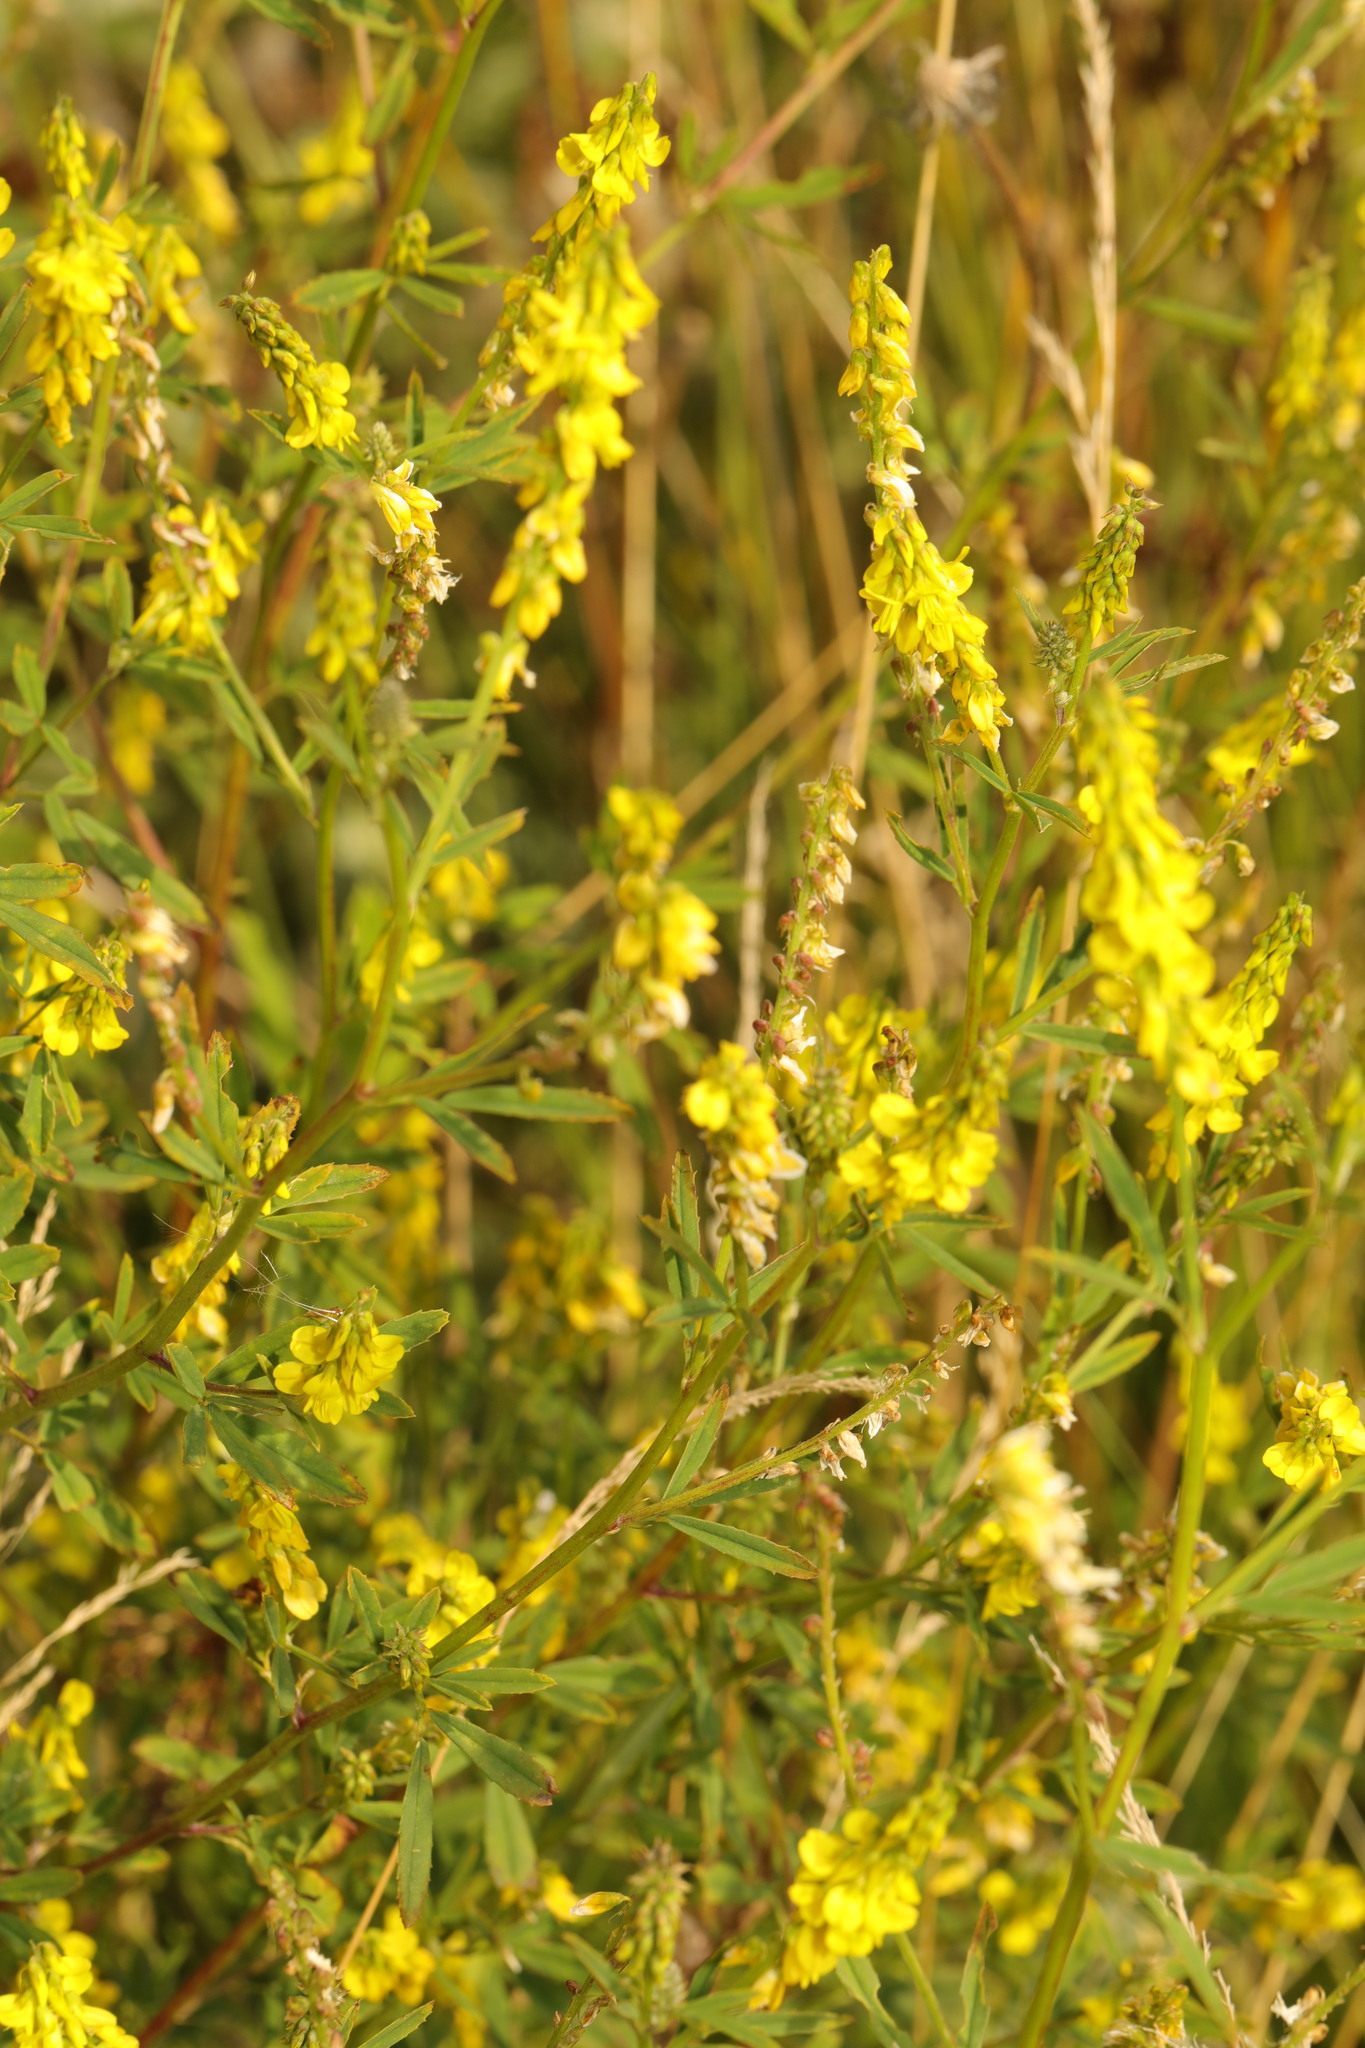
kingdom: Plantae
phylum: Tracheophyta
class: Magnoliopsida
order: Fabales
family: Fabaceae
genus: Melilotus
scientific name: Melilotus officinalis
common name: Sweetclover
